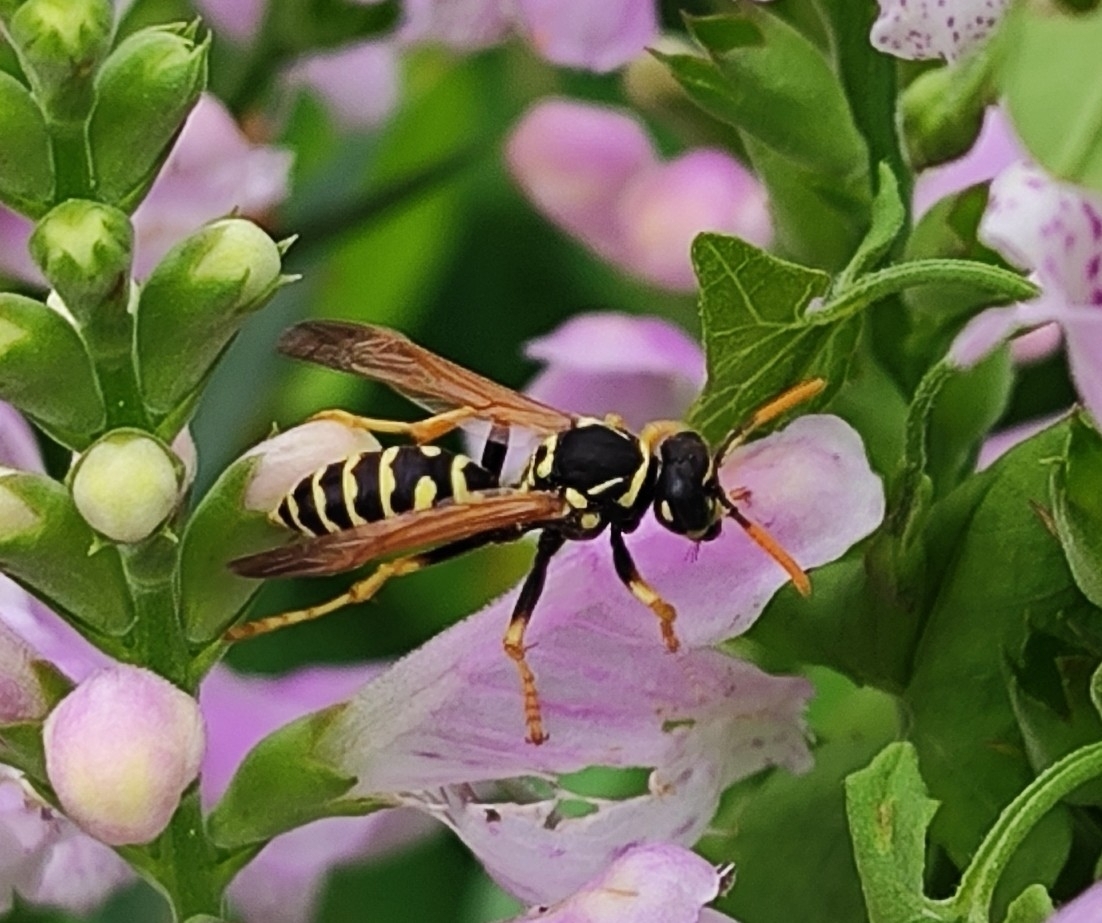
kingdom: Animalia
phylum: Arthropoda
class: Insecta
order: Hymenoptera
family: Eumenidae
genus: Polistes
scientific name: Polistes dominula
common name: Paper wasp
